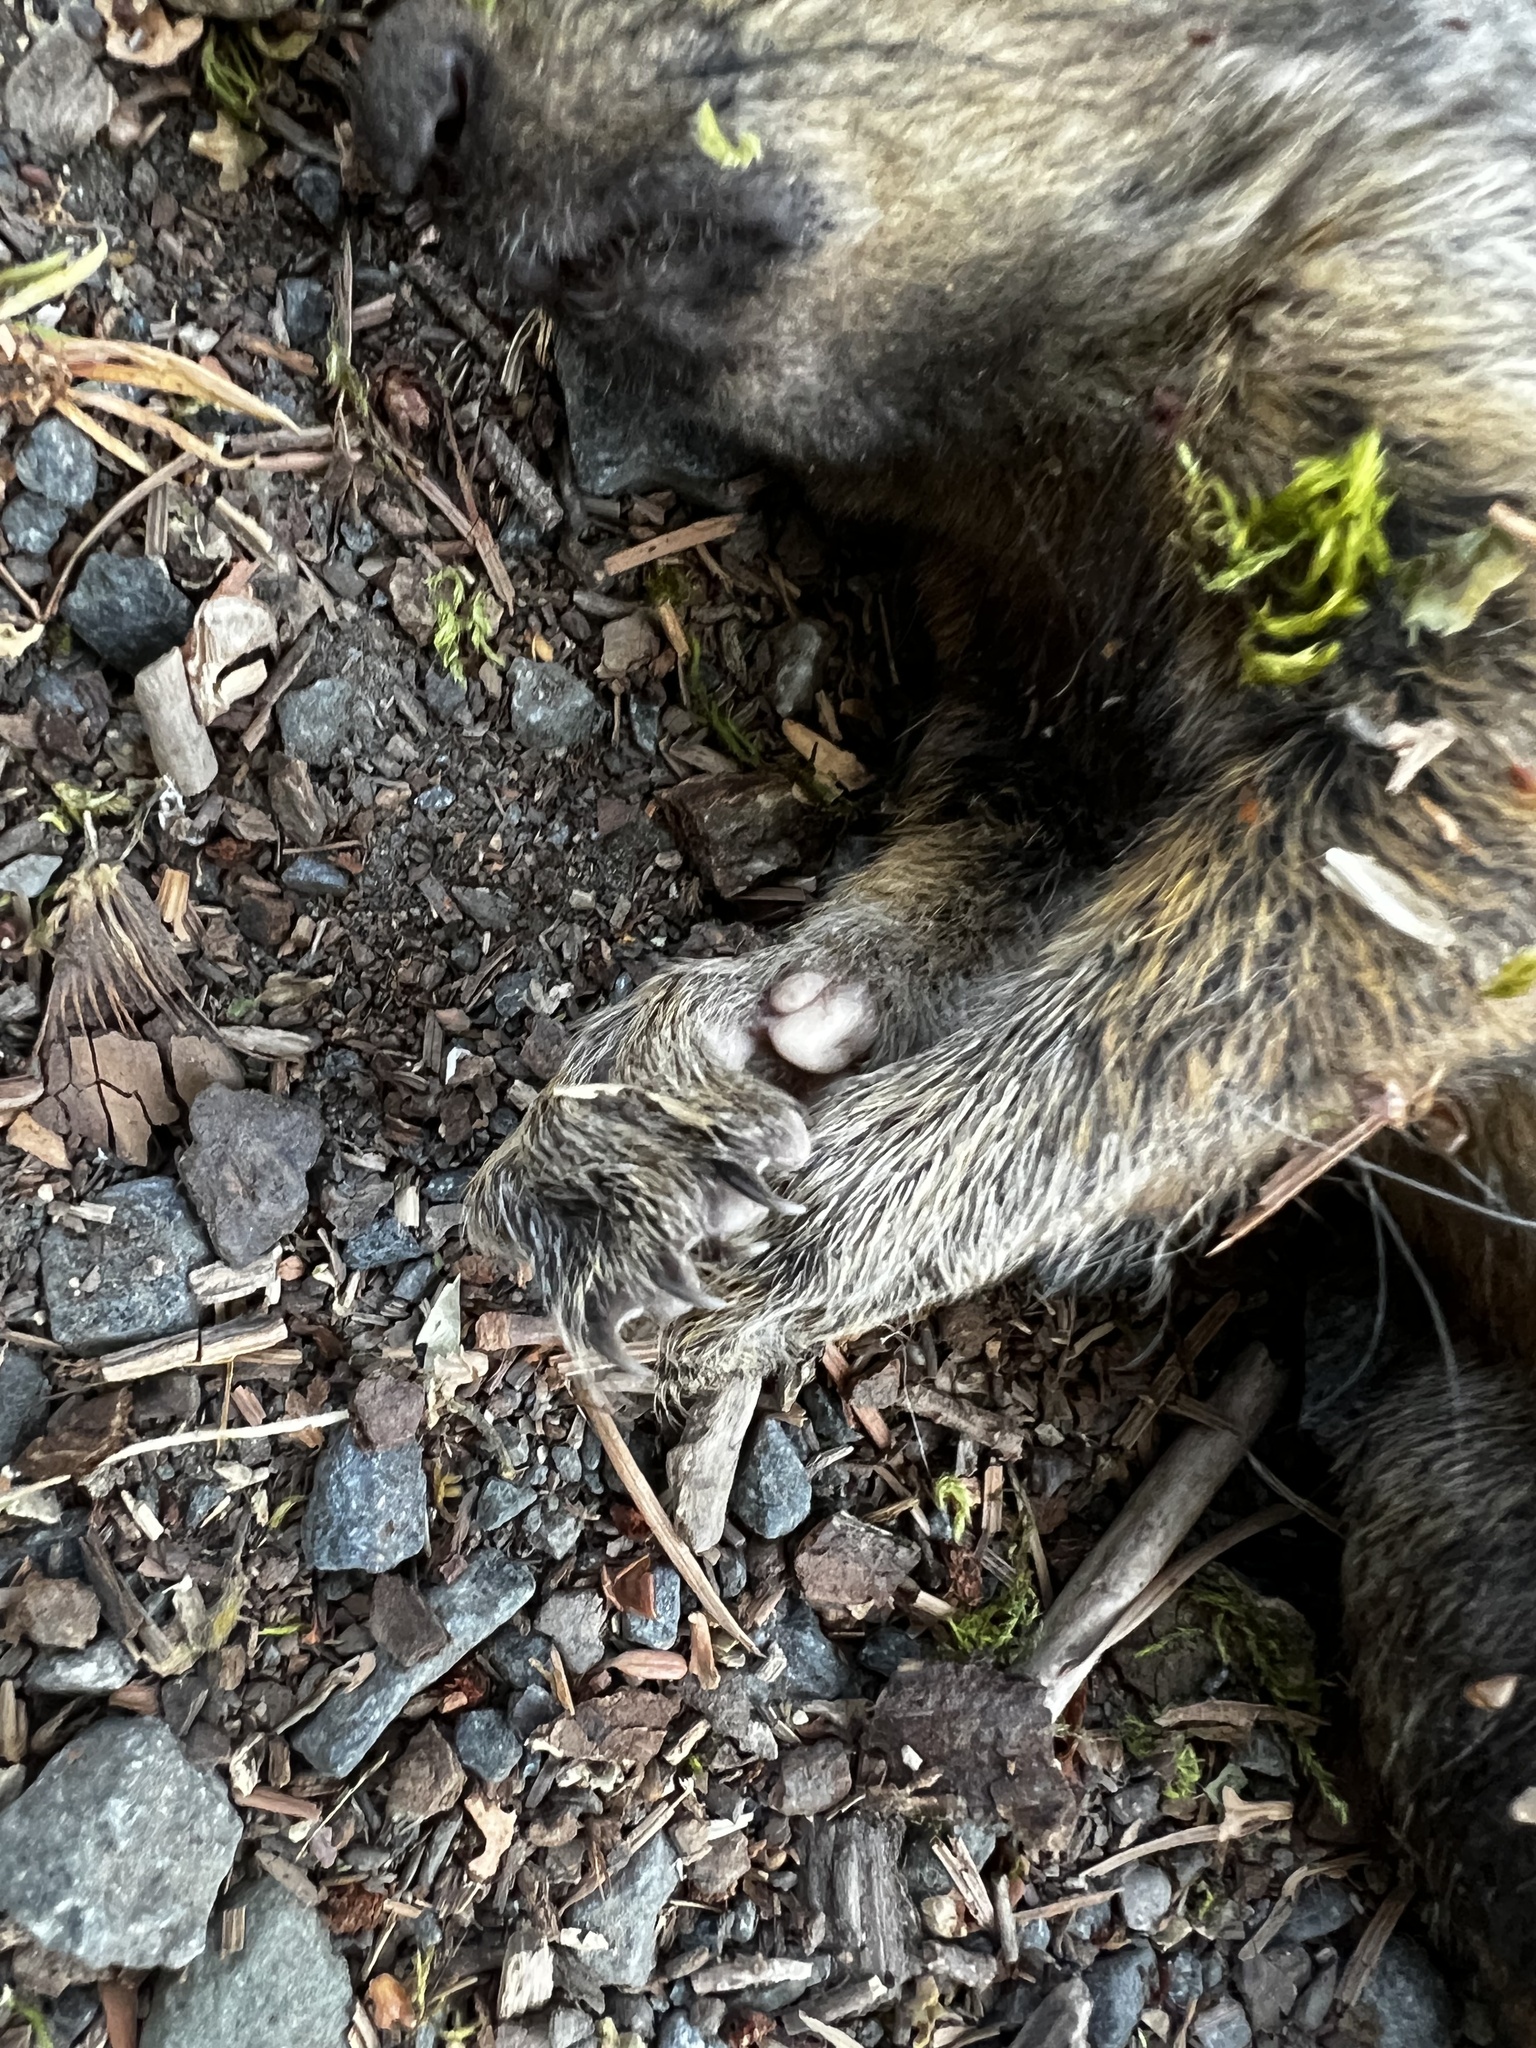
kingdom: Animalia
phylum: Chordata
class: Mammalia
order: Rodentia
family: Sciuridae
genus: Sciurus
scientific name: Sciurus carolinensis
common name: Eastern gray squirrel
